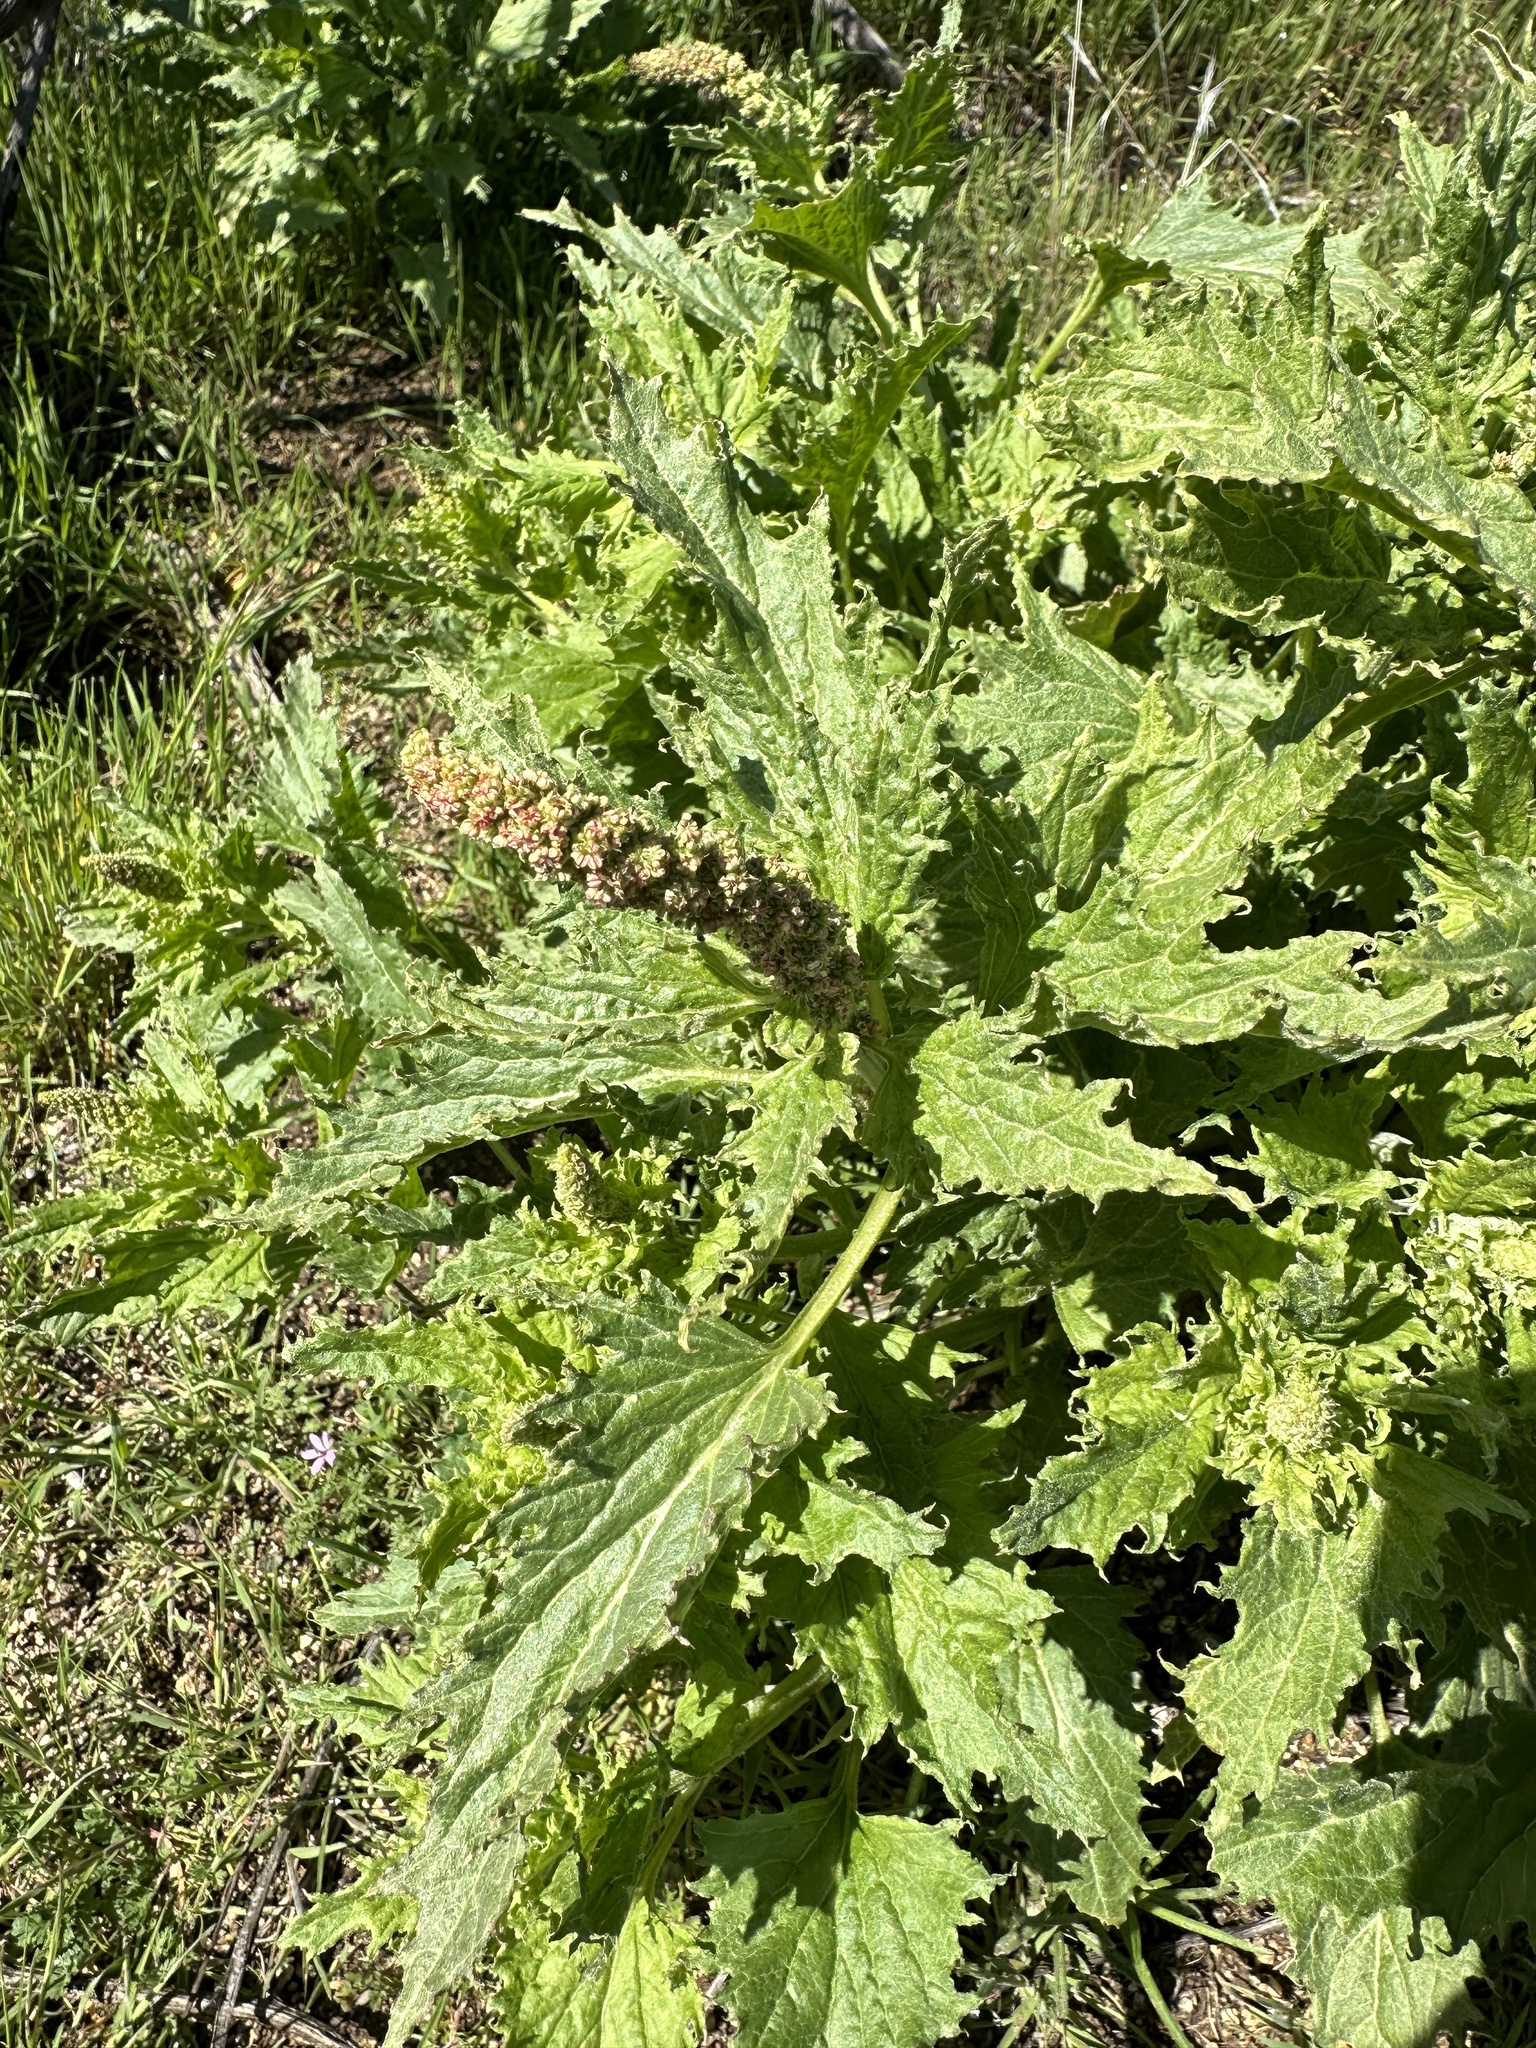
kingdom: Plantae
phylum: Tracheophyta
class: Magnoliopsida
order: Caryophyllales
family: Amaranthaceae
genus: Blitum
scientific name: Blitum californicum
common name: California goosefoot
